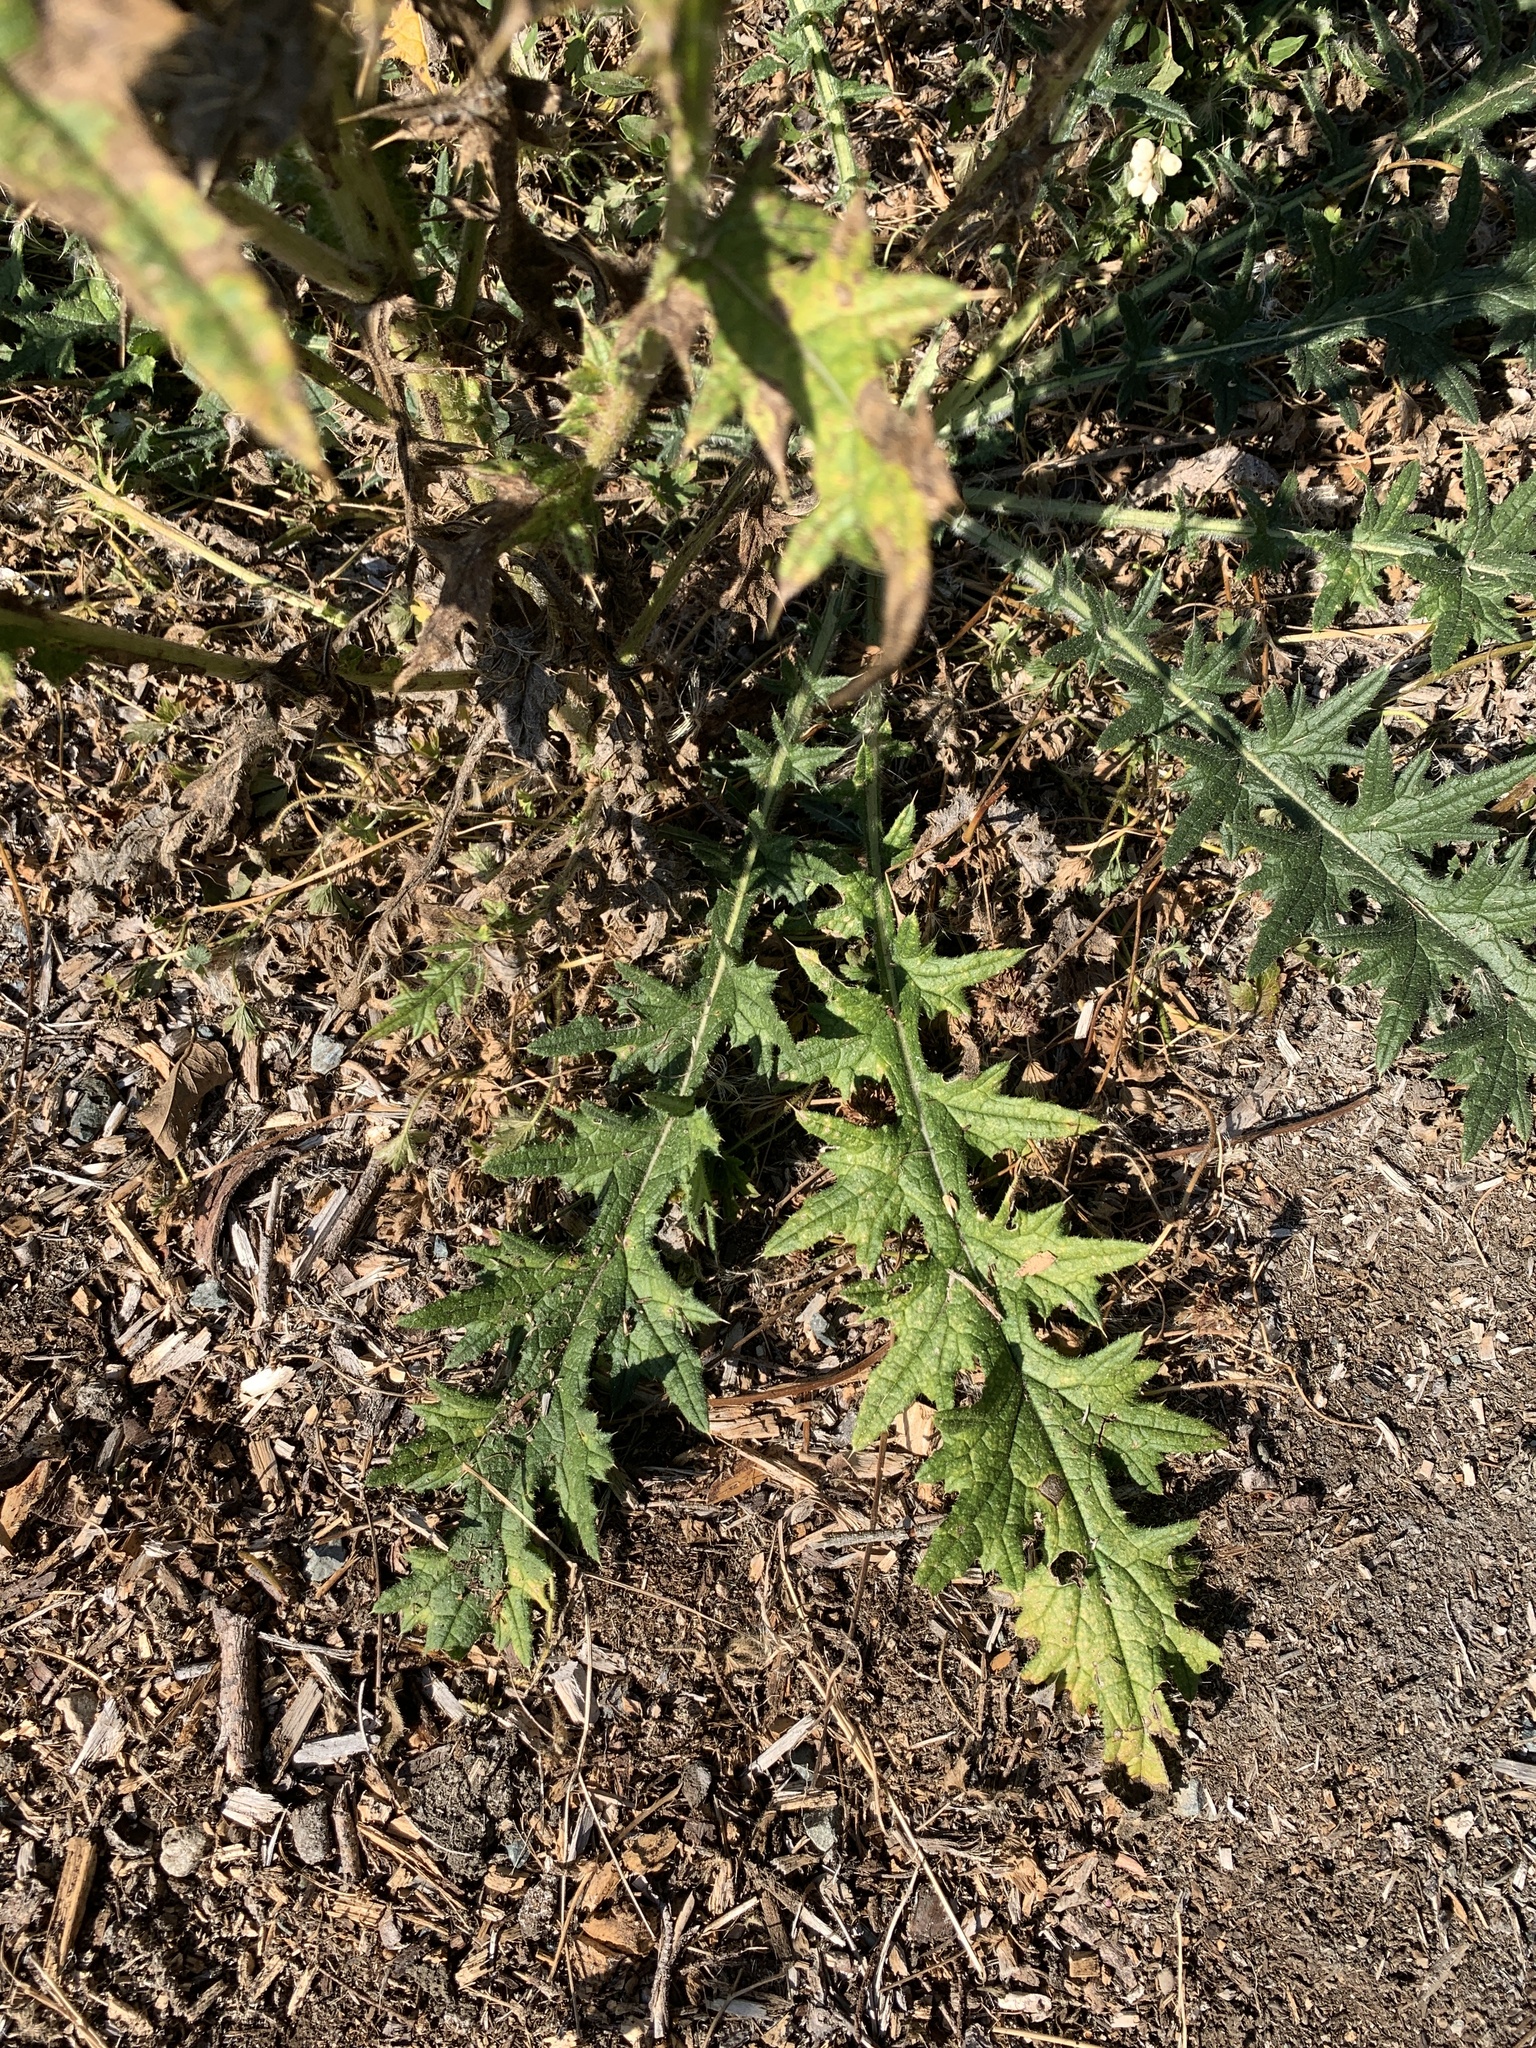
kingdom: Plantae
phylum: Tracheophyta
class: Magnoliopsida
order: Asterales
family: Asteraceae
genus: Cirsium
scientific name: Cirsium vulgare
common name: Bull thistle
